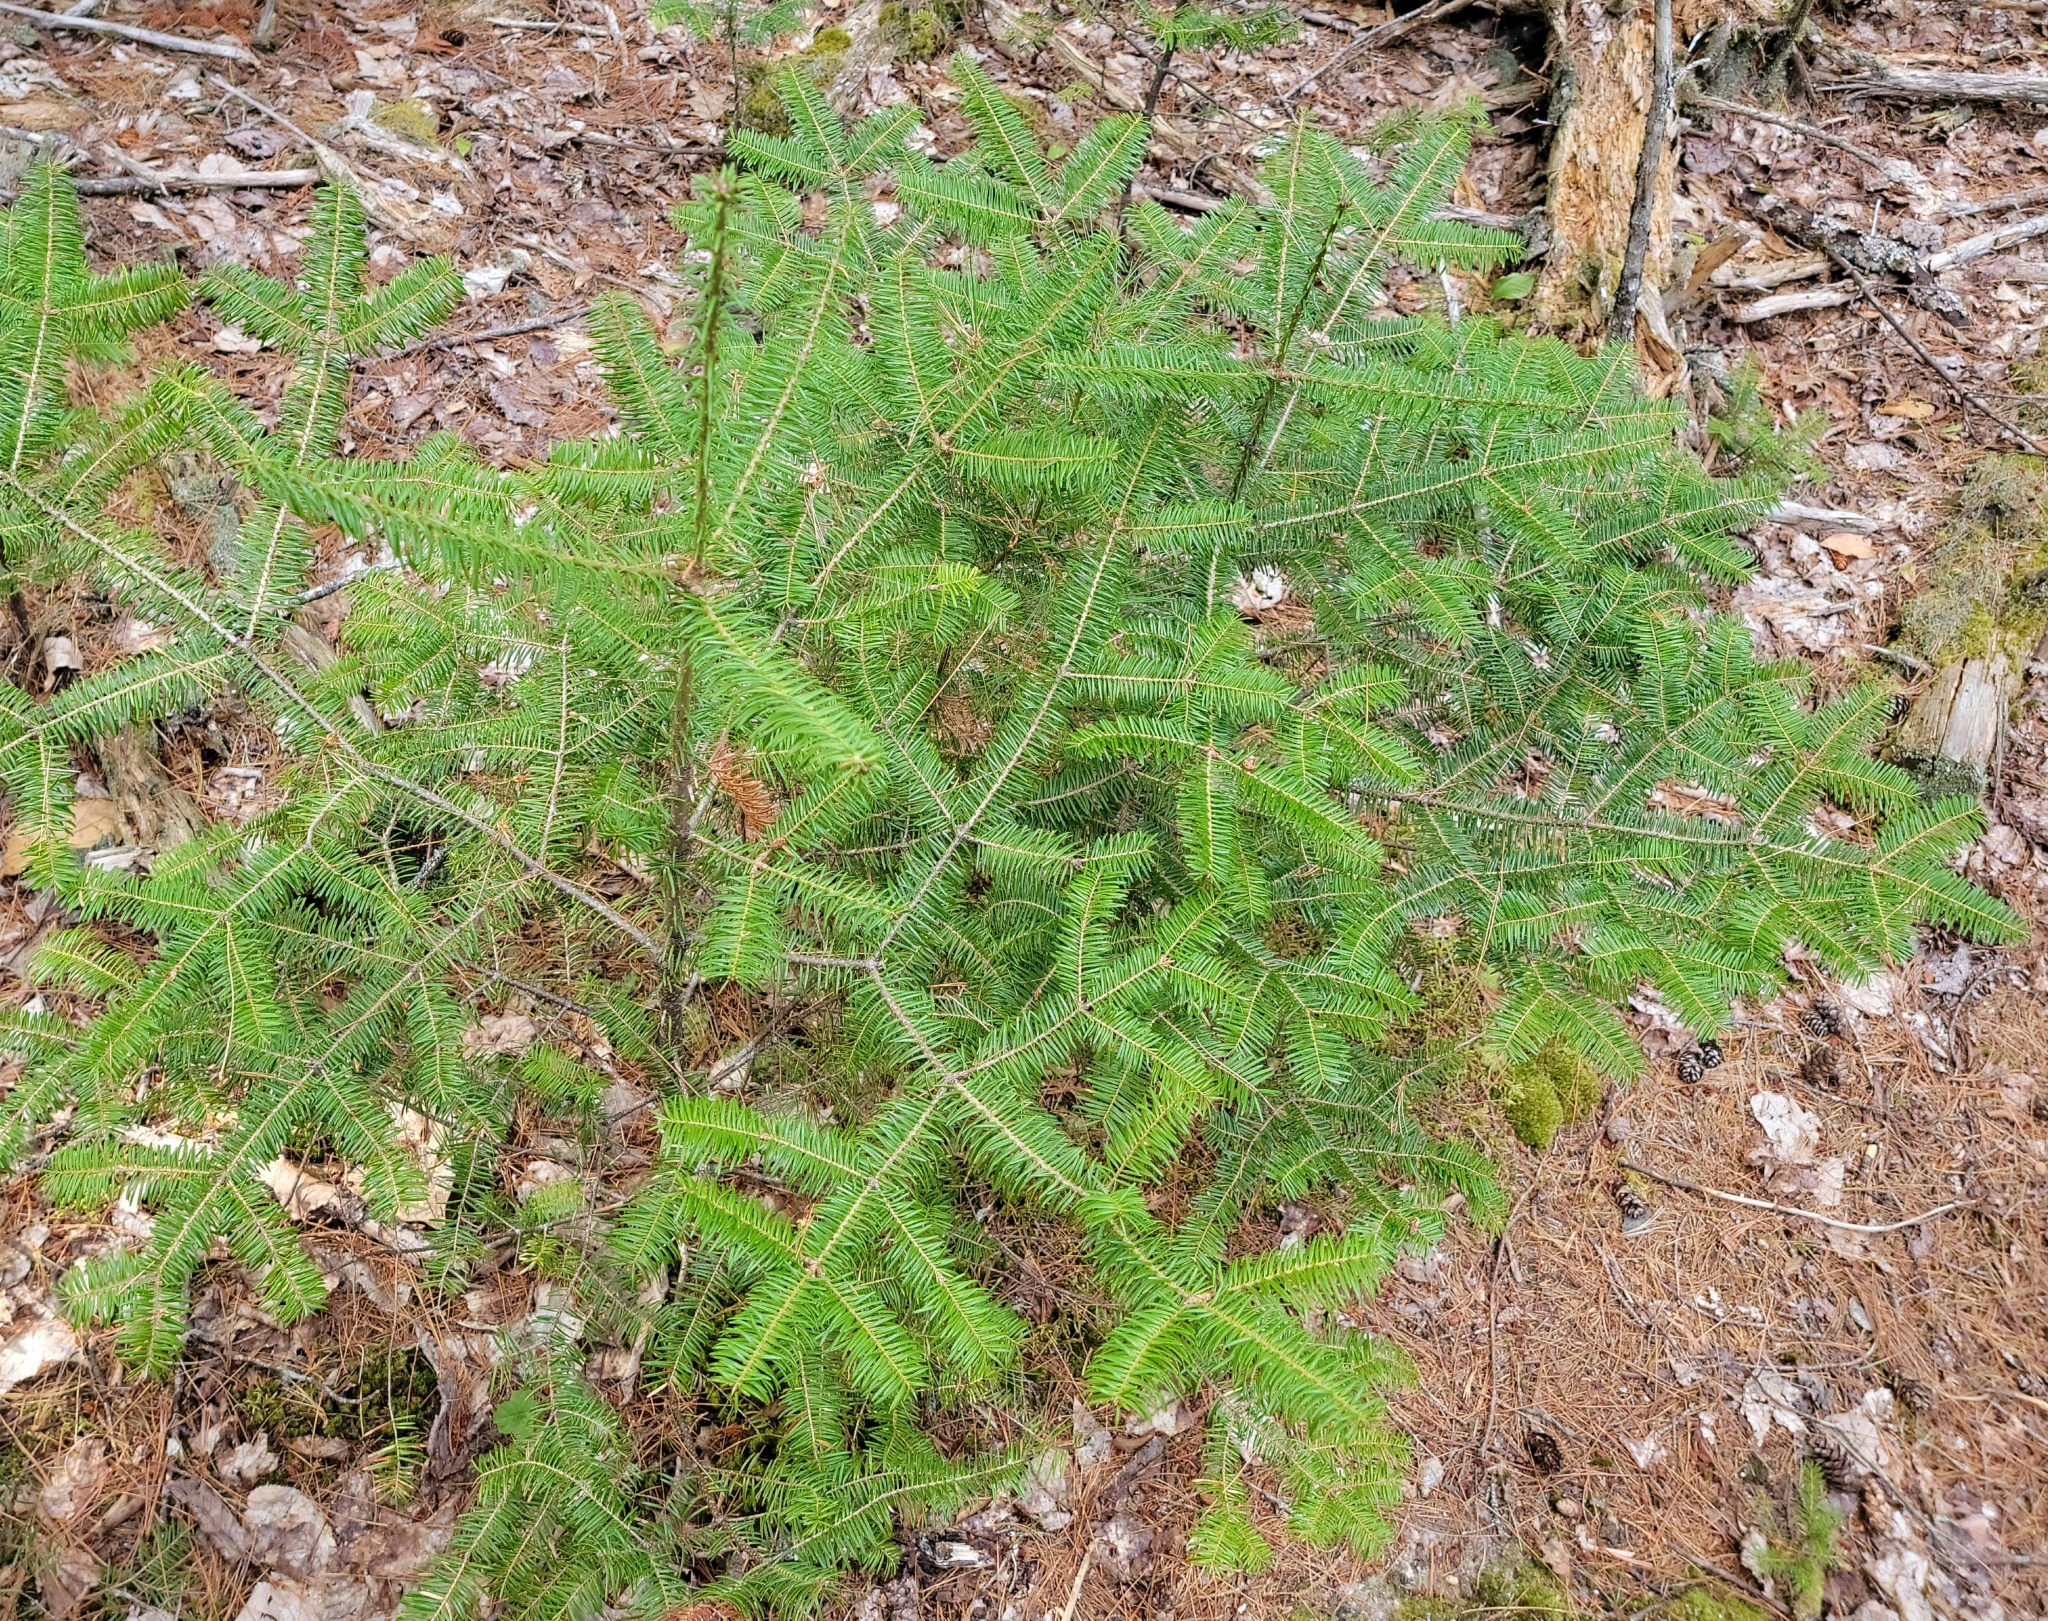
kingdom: Plantae
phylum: Tracheophyta
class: Pinopsida
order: Pinales
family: Pinaceae
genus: Abies
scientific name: Abies balsamea
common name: Balsam fir
